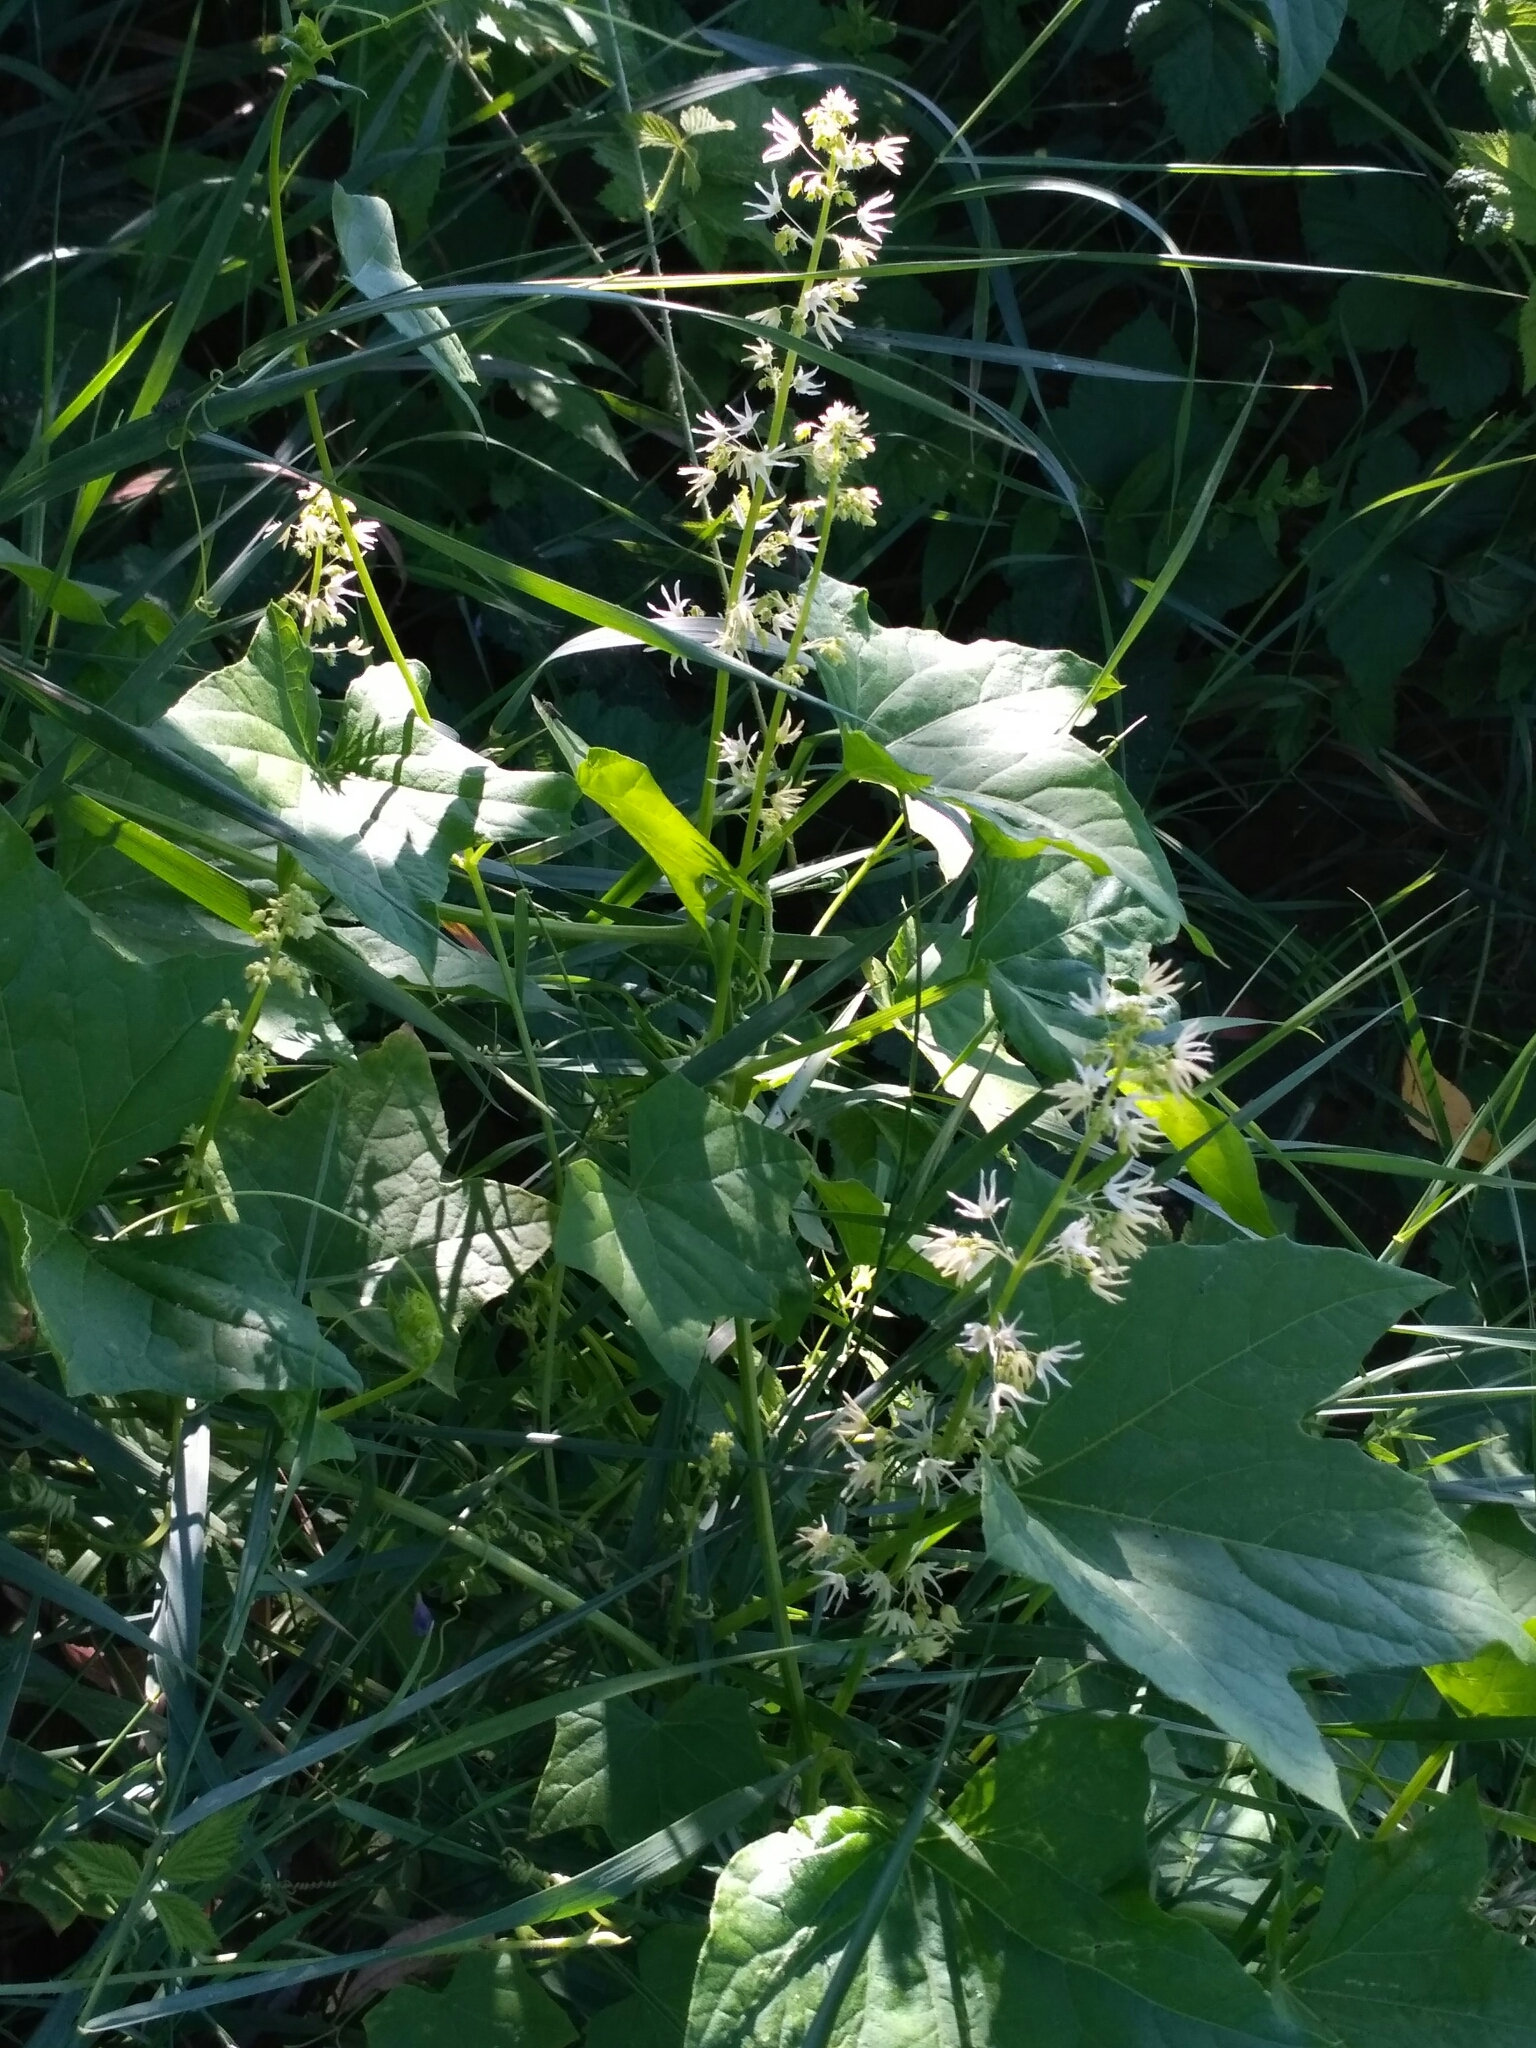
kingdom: Plantae
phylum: Tracheophyta
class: Magnoliopsida
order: Cucurbitales
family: Cucurbitaceae
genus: Echinocystis
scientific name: Echinocystis lobata
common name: Wild cucumber
